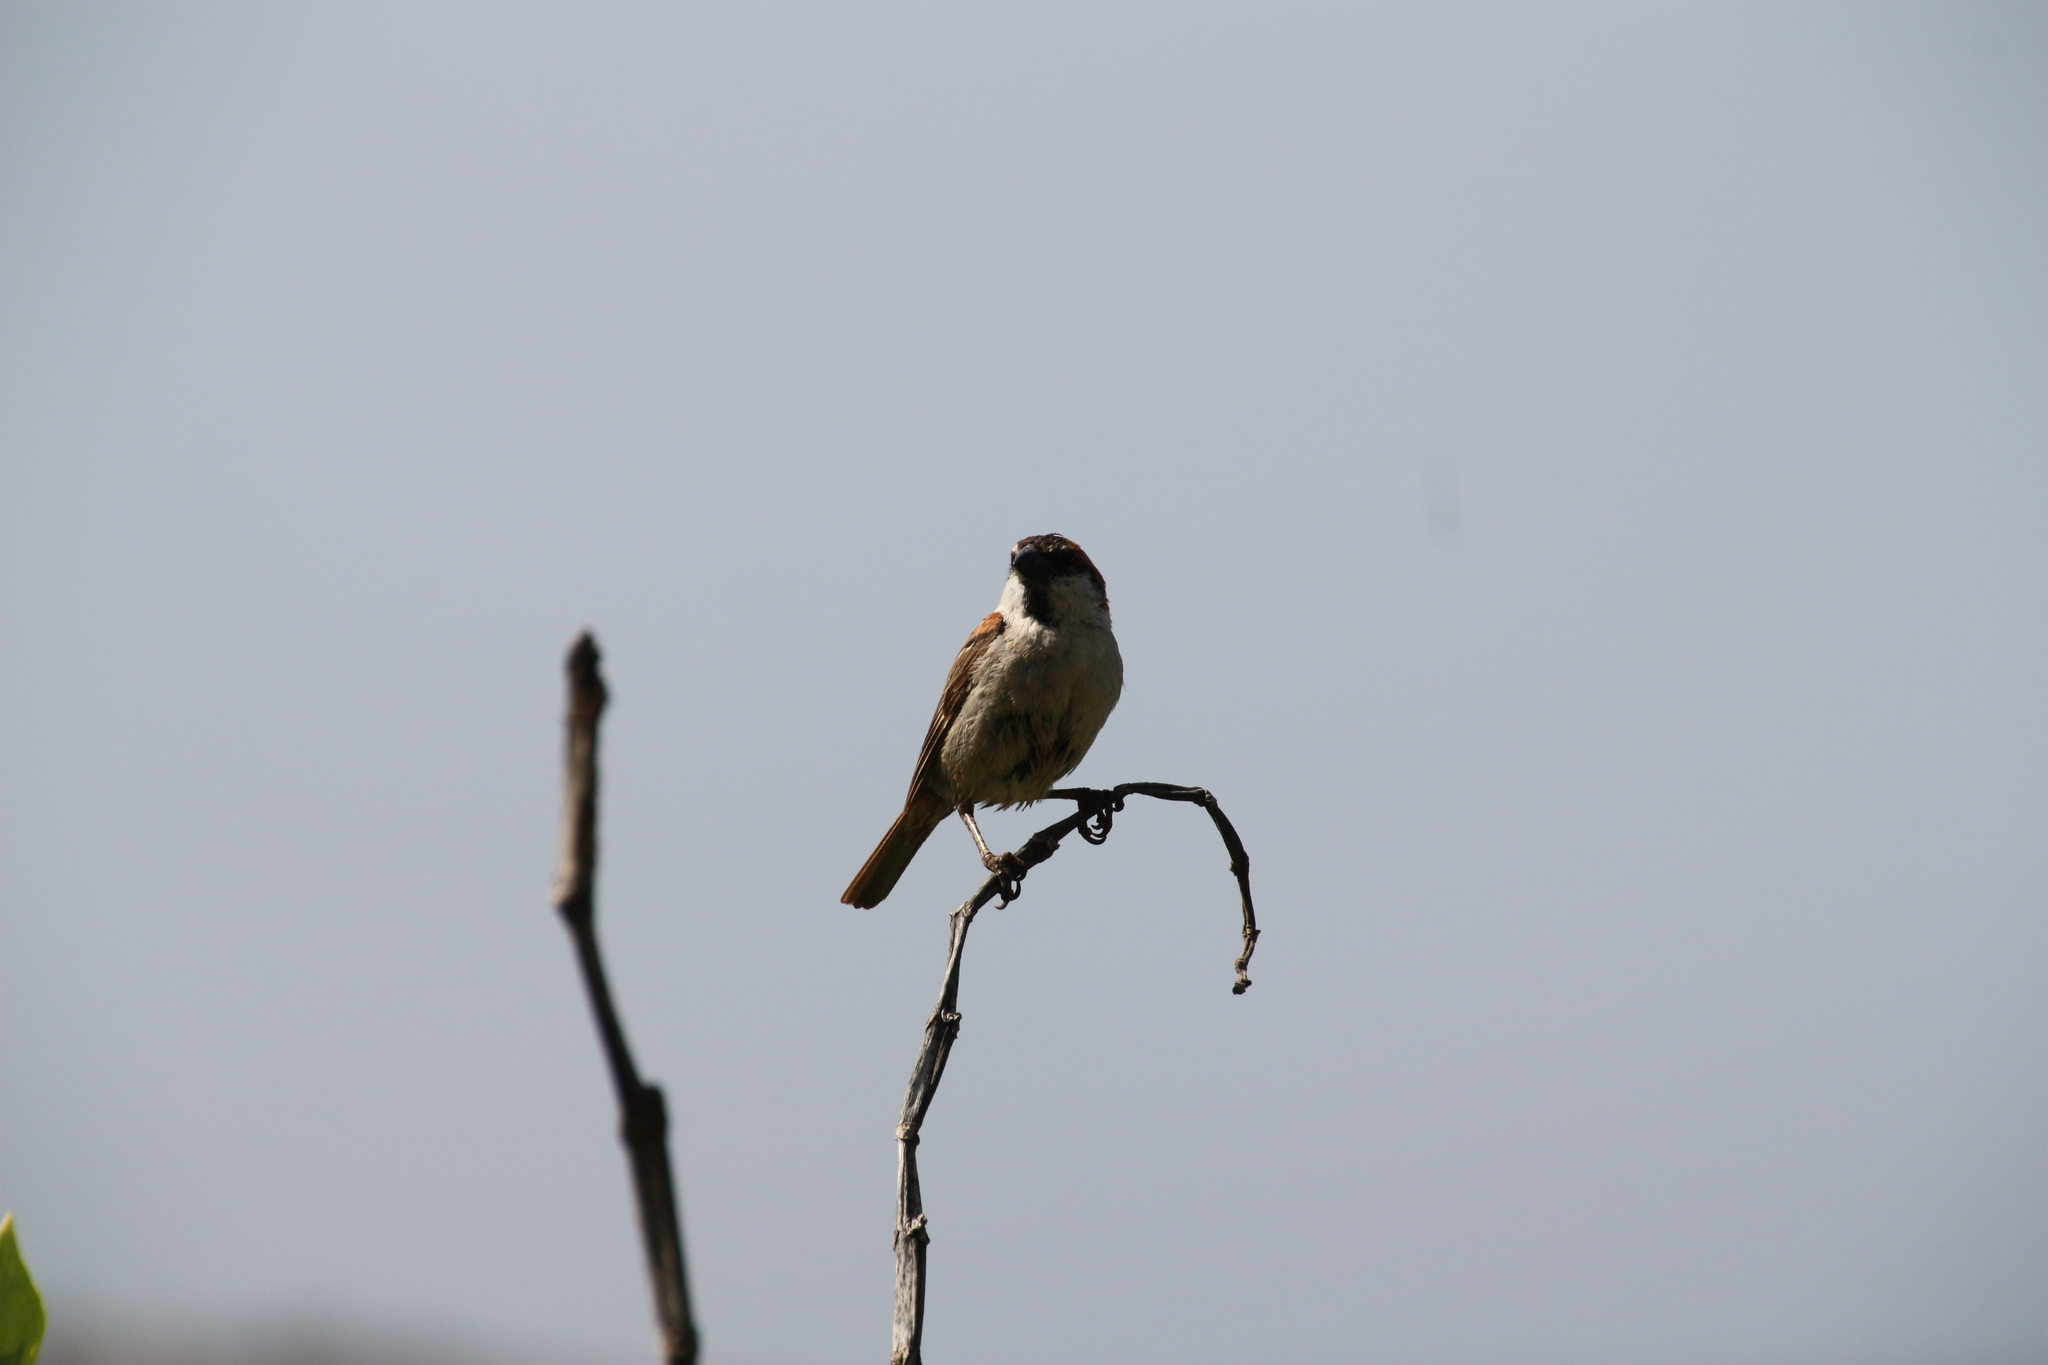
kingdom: Animalia
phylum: Chordata
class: Aves
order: Passeriformes
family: Passeridae
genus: Passer
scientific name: Passer iagoensis
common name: Iago sparrow
